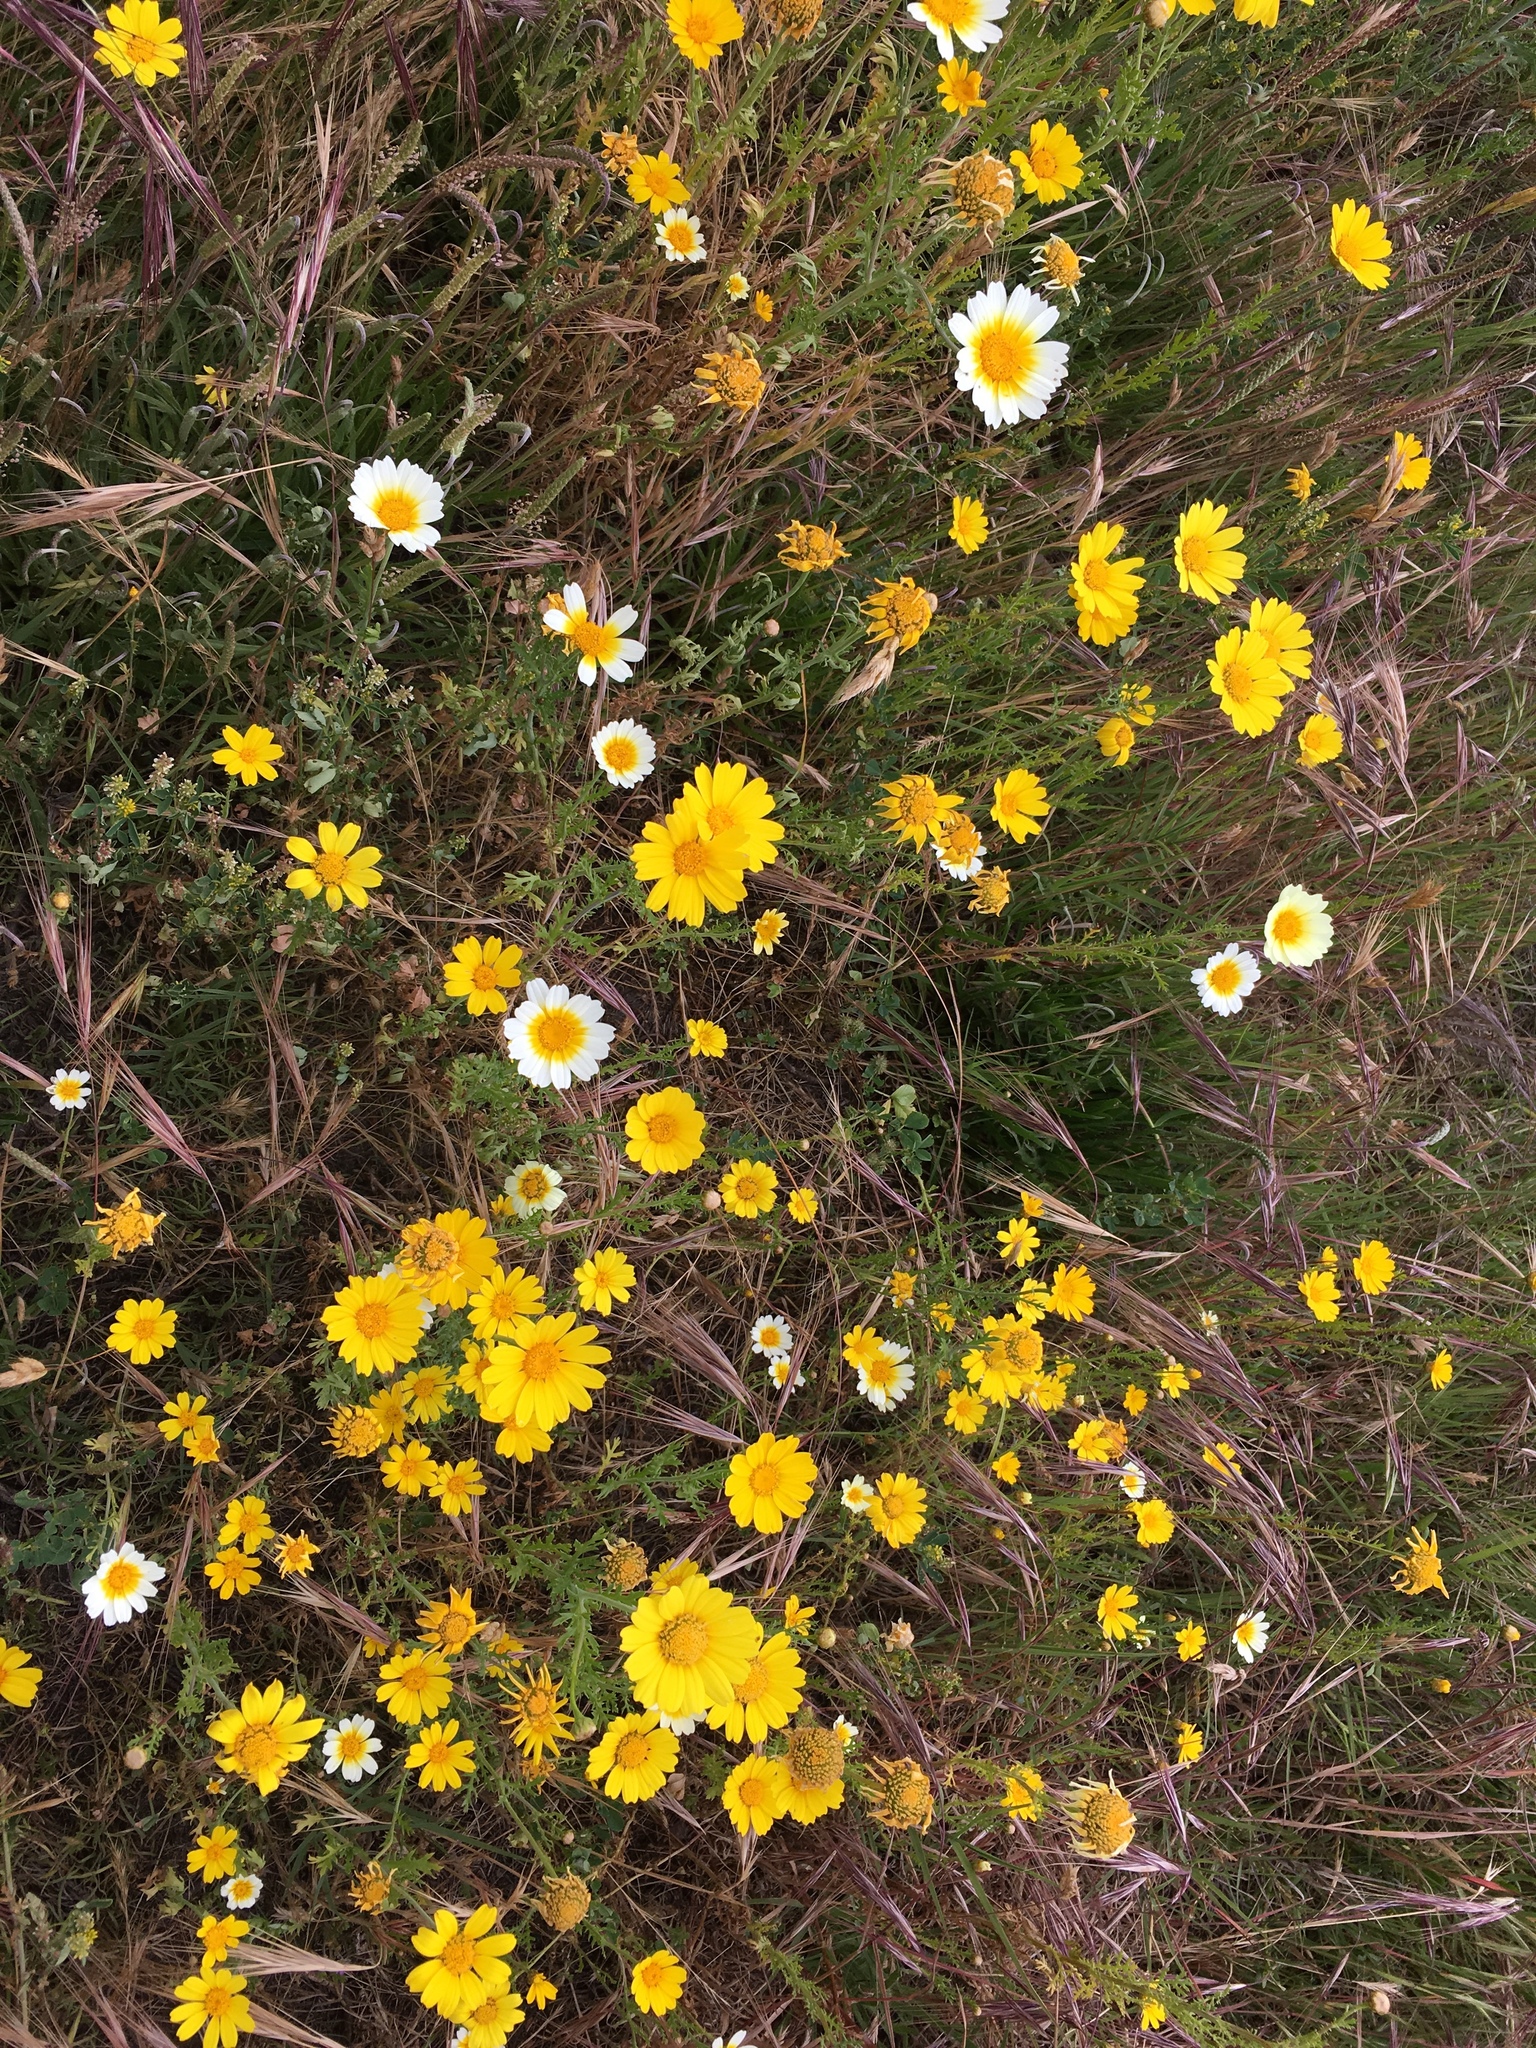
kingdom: Plantae
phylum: Tracheophyta
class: Magnoliopsida
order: Asterales
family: Asteraceae
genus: Glebionis
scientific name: Glebionis coronaria
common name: Crowndaisy
